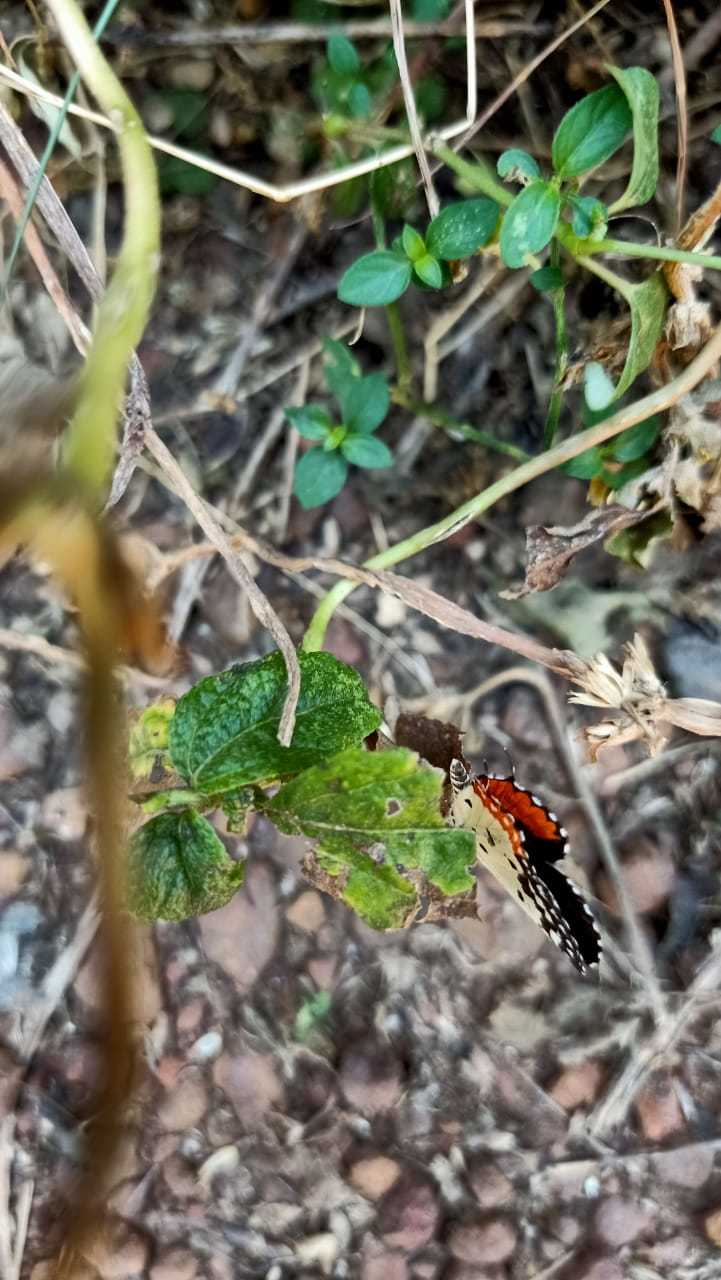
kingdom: Animalia
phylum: Arthropoda
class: Insecta
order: Lepidoptera
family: Lycaenidae
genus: Talicada
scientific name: Talicada nyseus
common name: Red pierrot
